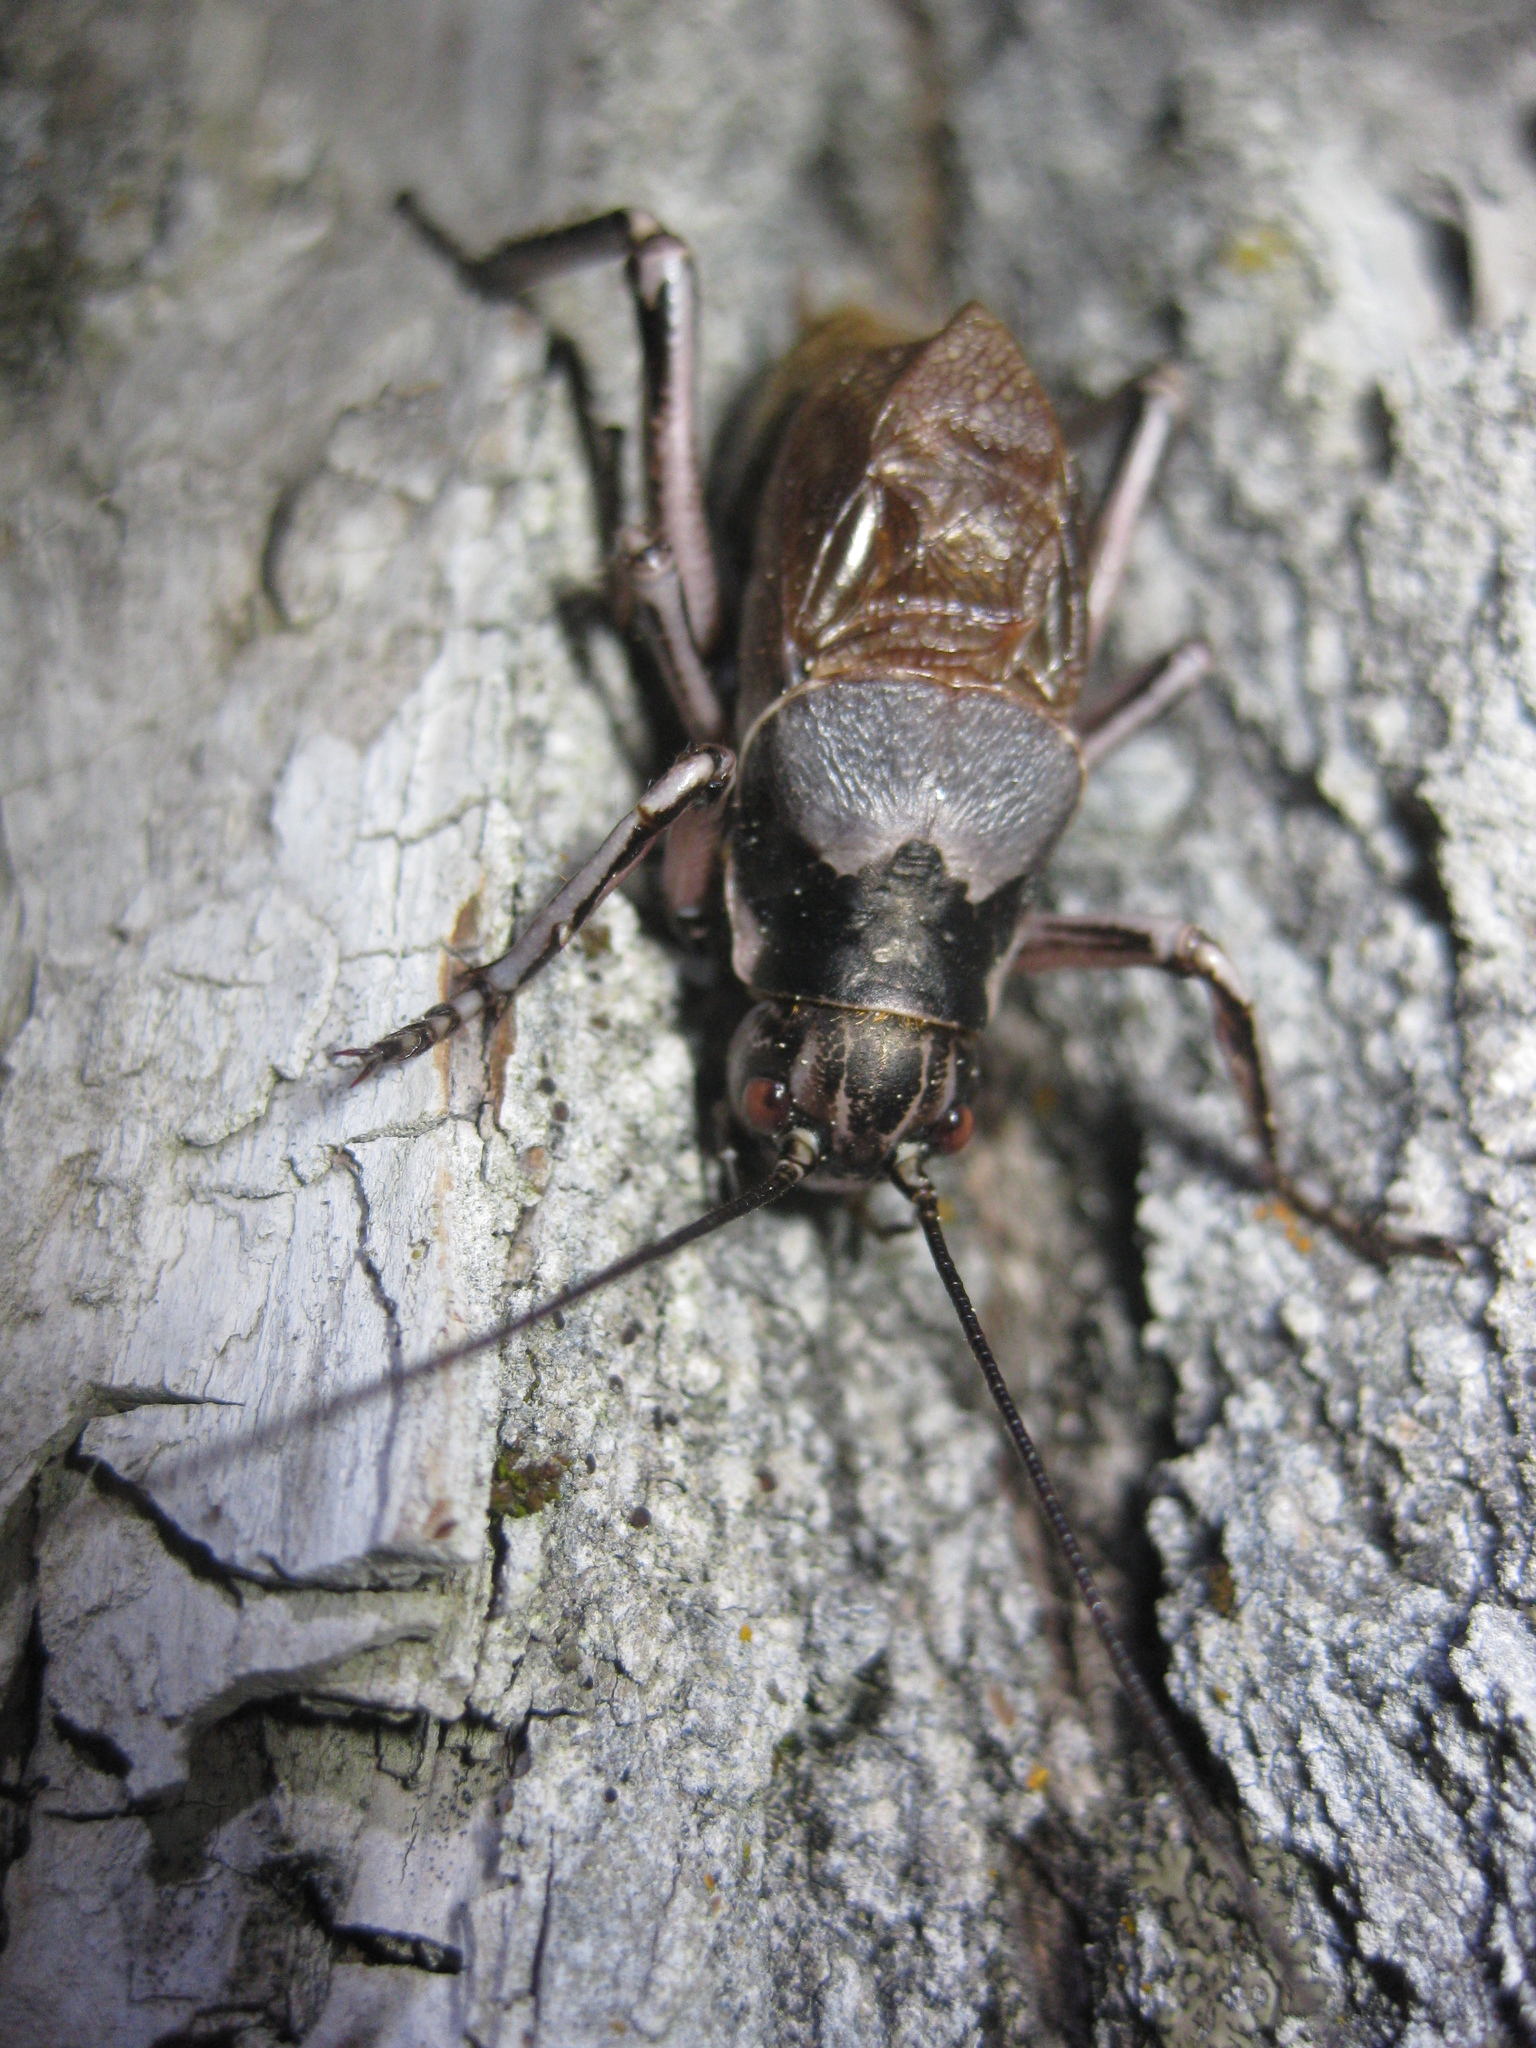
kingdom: Animalia
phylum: Arthropoda
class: Insecta
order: Orthoptera
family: Prophalangopsidae
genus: Cyphoderris
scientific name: Cyphoderris monstrosa
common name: Great grig
